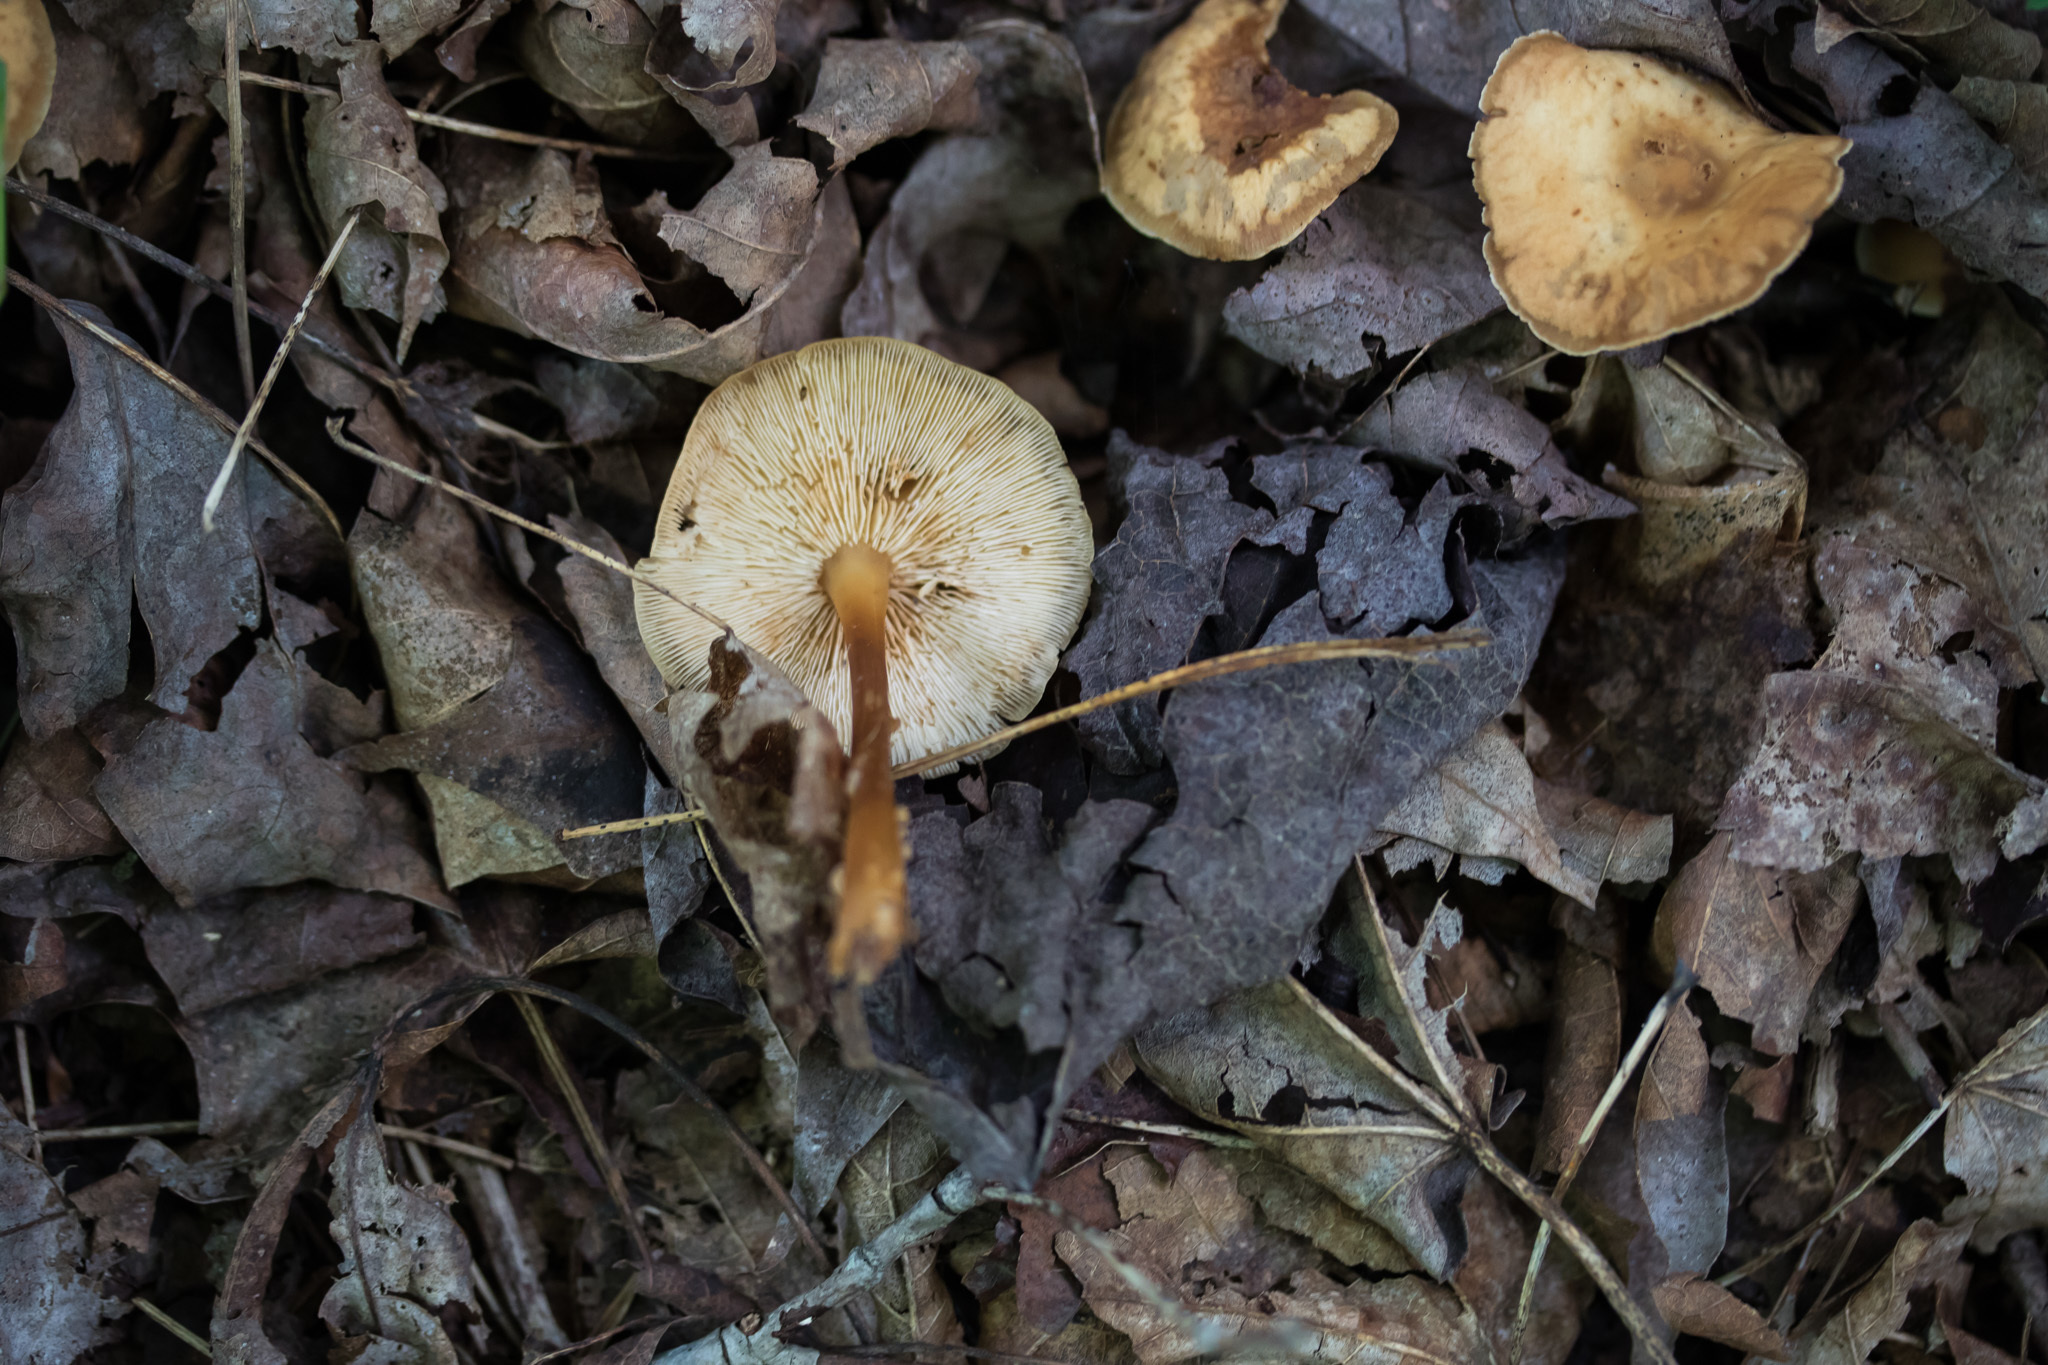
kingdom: Fungi
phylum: Basidiomycota
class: Agaricomycetes
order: Agaricales
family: Omphalotaceae
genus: Gymnopus
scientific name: Gymnopus dryophilus
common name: Penny top
